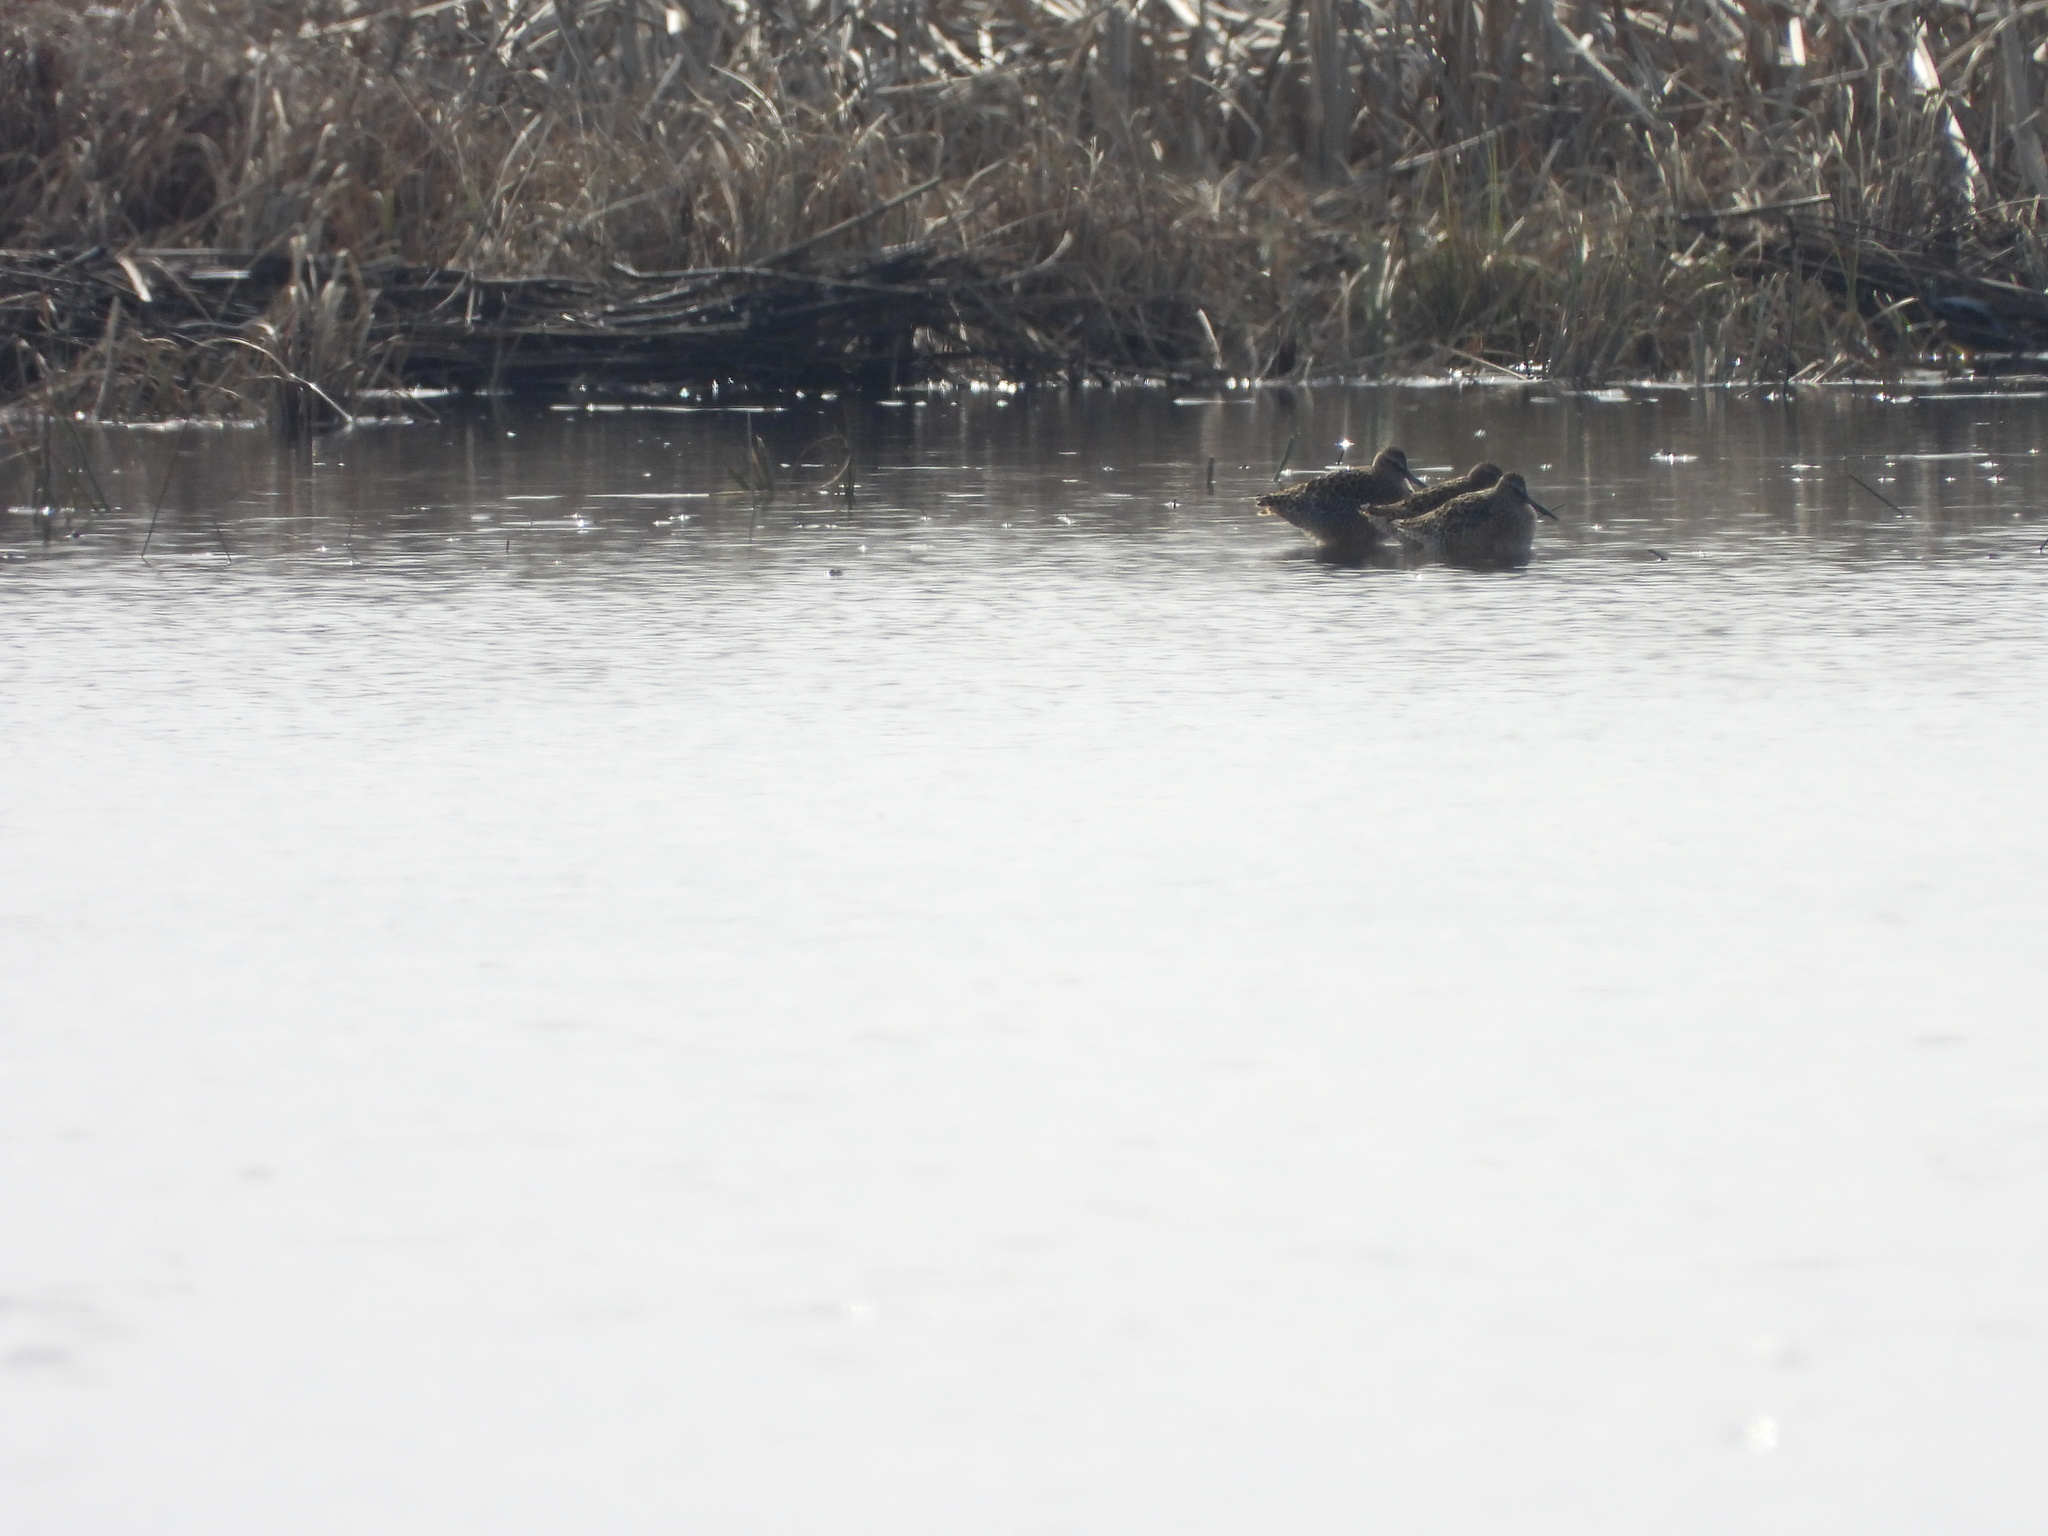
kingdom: Animalia
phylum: Chordata
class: Aves
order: Charadriiformes
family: Scolopacidae
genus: Limnodromus
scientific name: Limnodromus griseus
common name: Short-billed dowitcher
